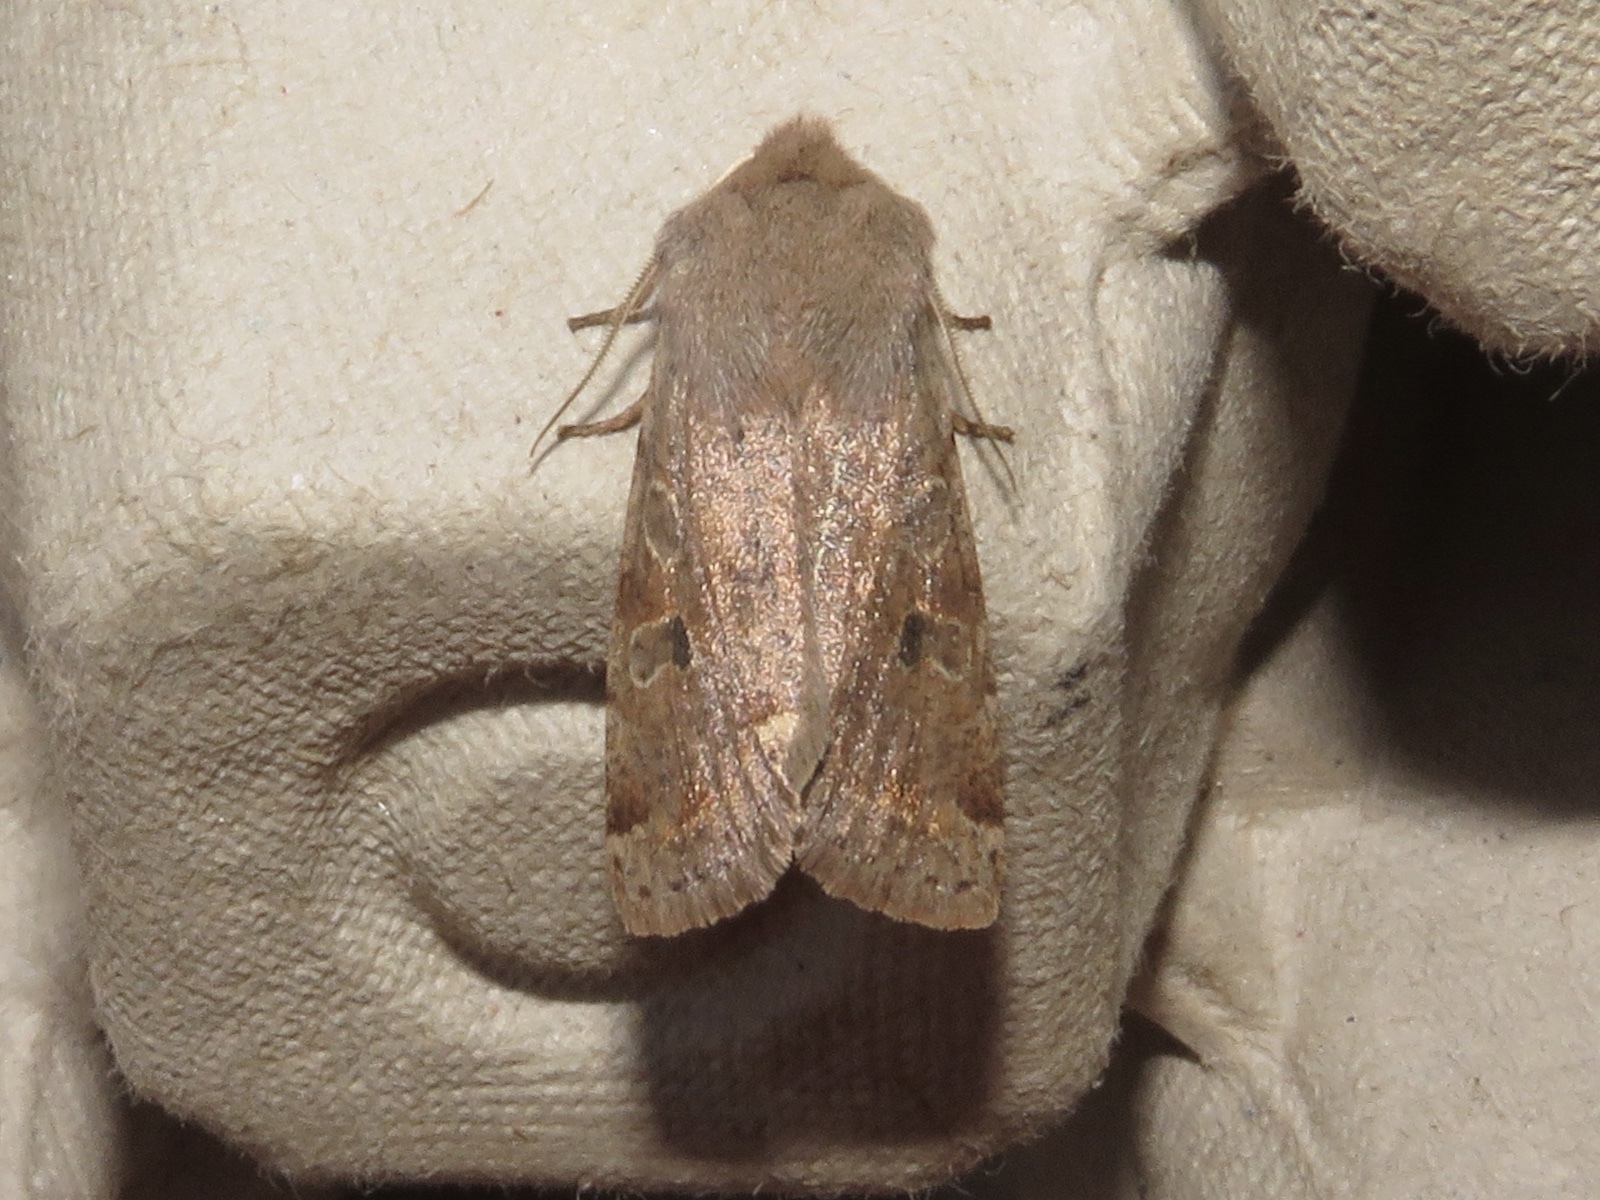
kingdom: Animalia
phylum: Arthropoda
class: Insecta
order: Lepidoptera
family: Noctuidae
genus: Orthosia
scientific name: Orthosia hibisci
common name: Green fruitworm
